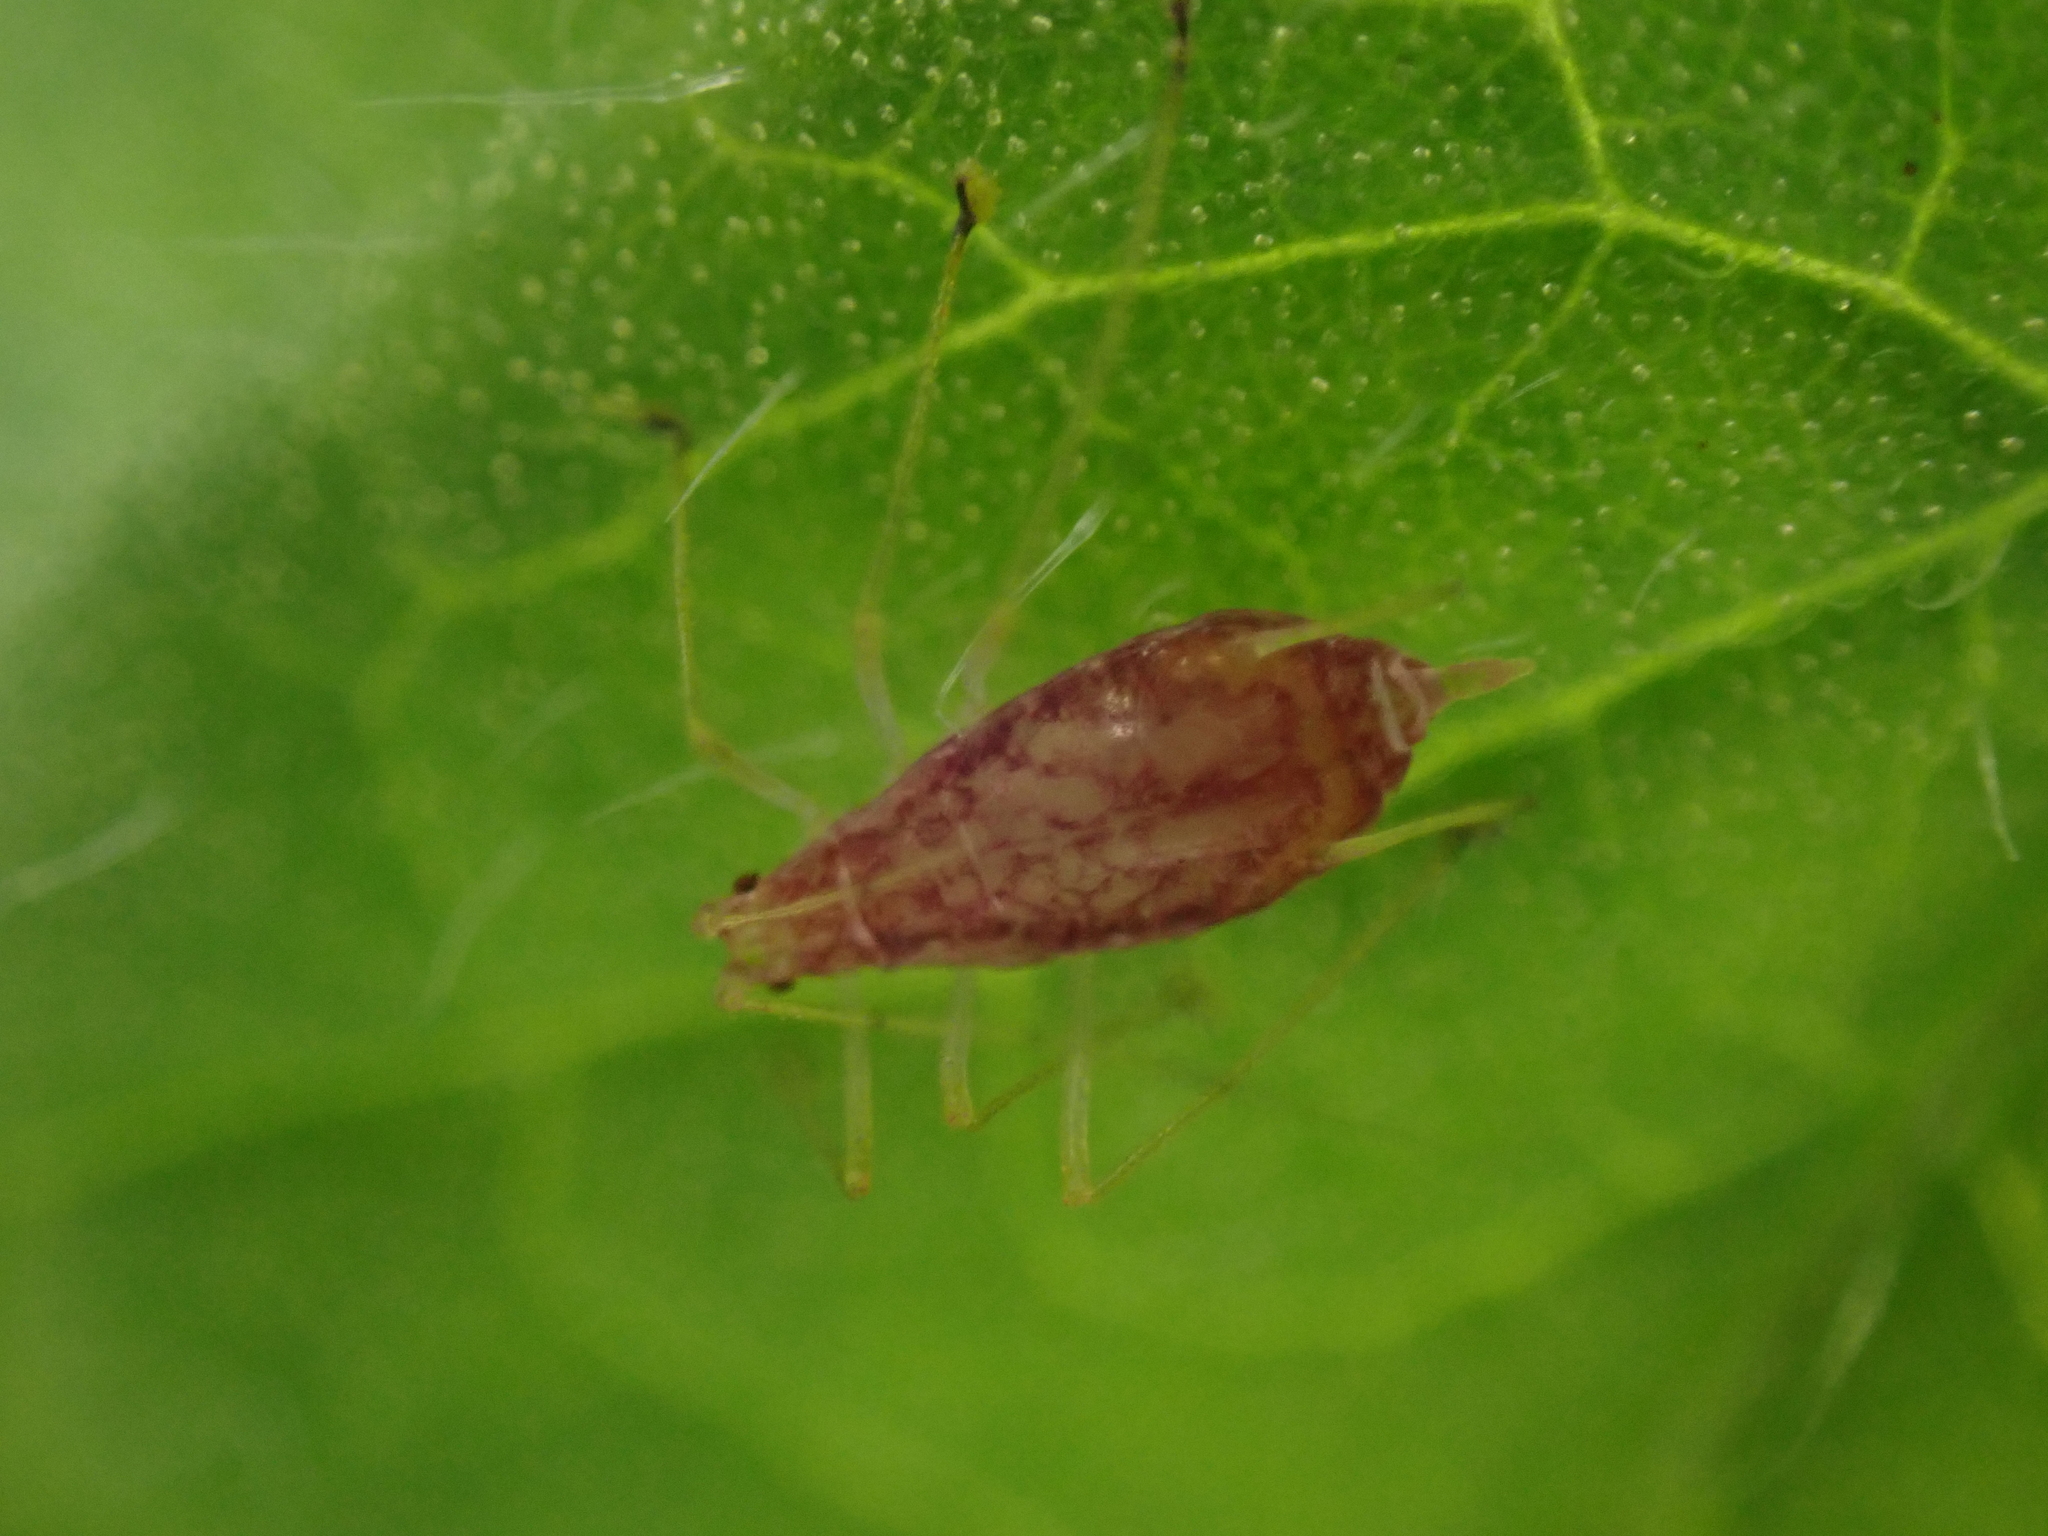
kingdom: Animalia
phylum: Arthropoda
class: Insecta
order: Hemiptera
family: Aphididae
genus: Macrosiphum
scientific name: Macrosiphum euphorbiae
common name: Potato aphid
